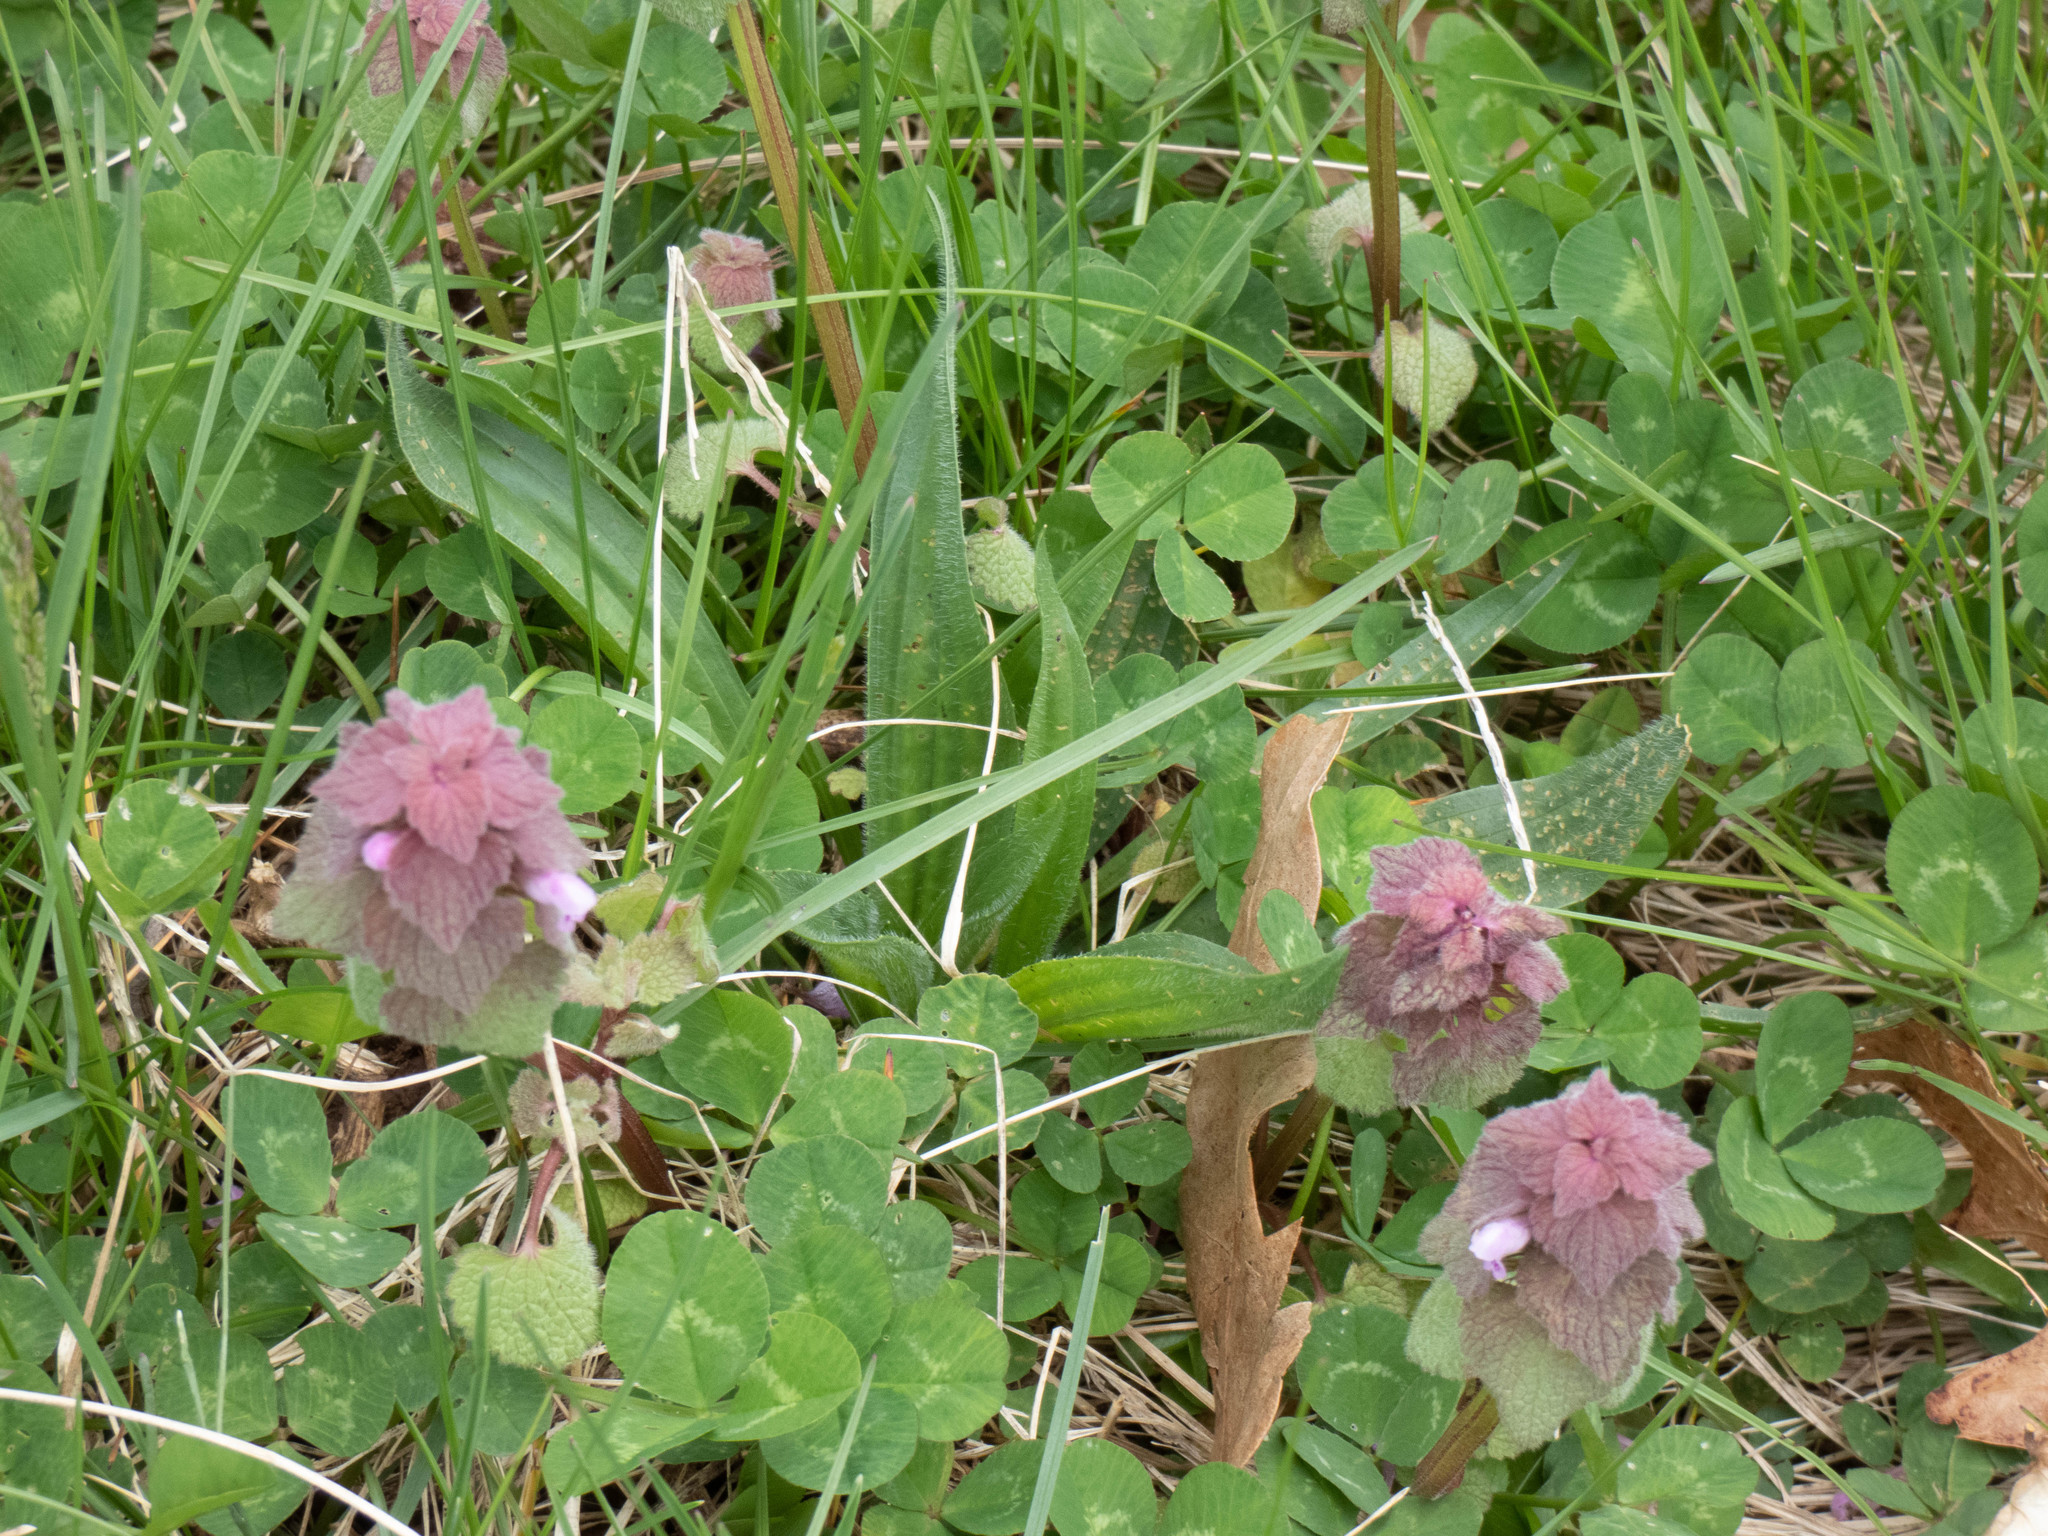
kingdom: Plantae
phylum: Tracheophyta
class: Magnoliopsida
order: Lamiales
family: Lamiaceae
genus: Lamium
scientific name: Lamium purpureum
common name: Red dead-nettle
